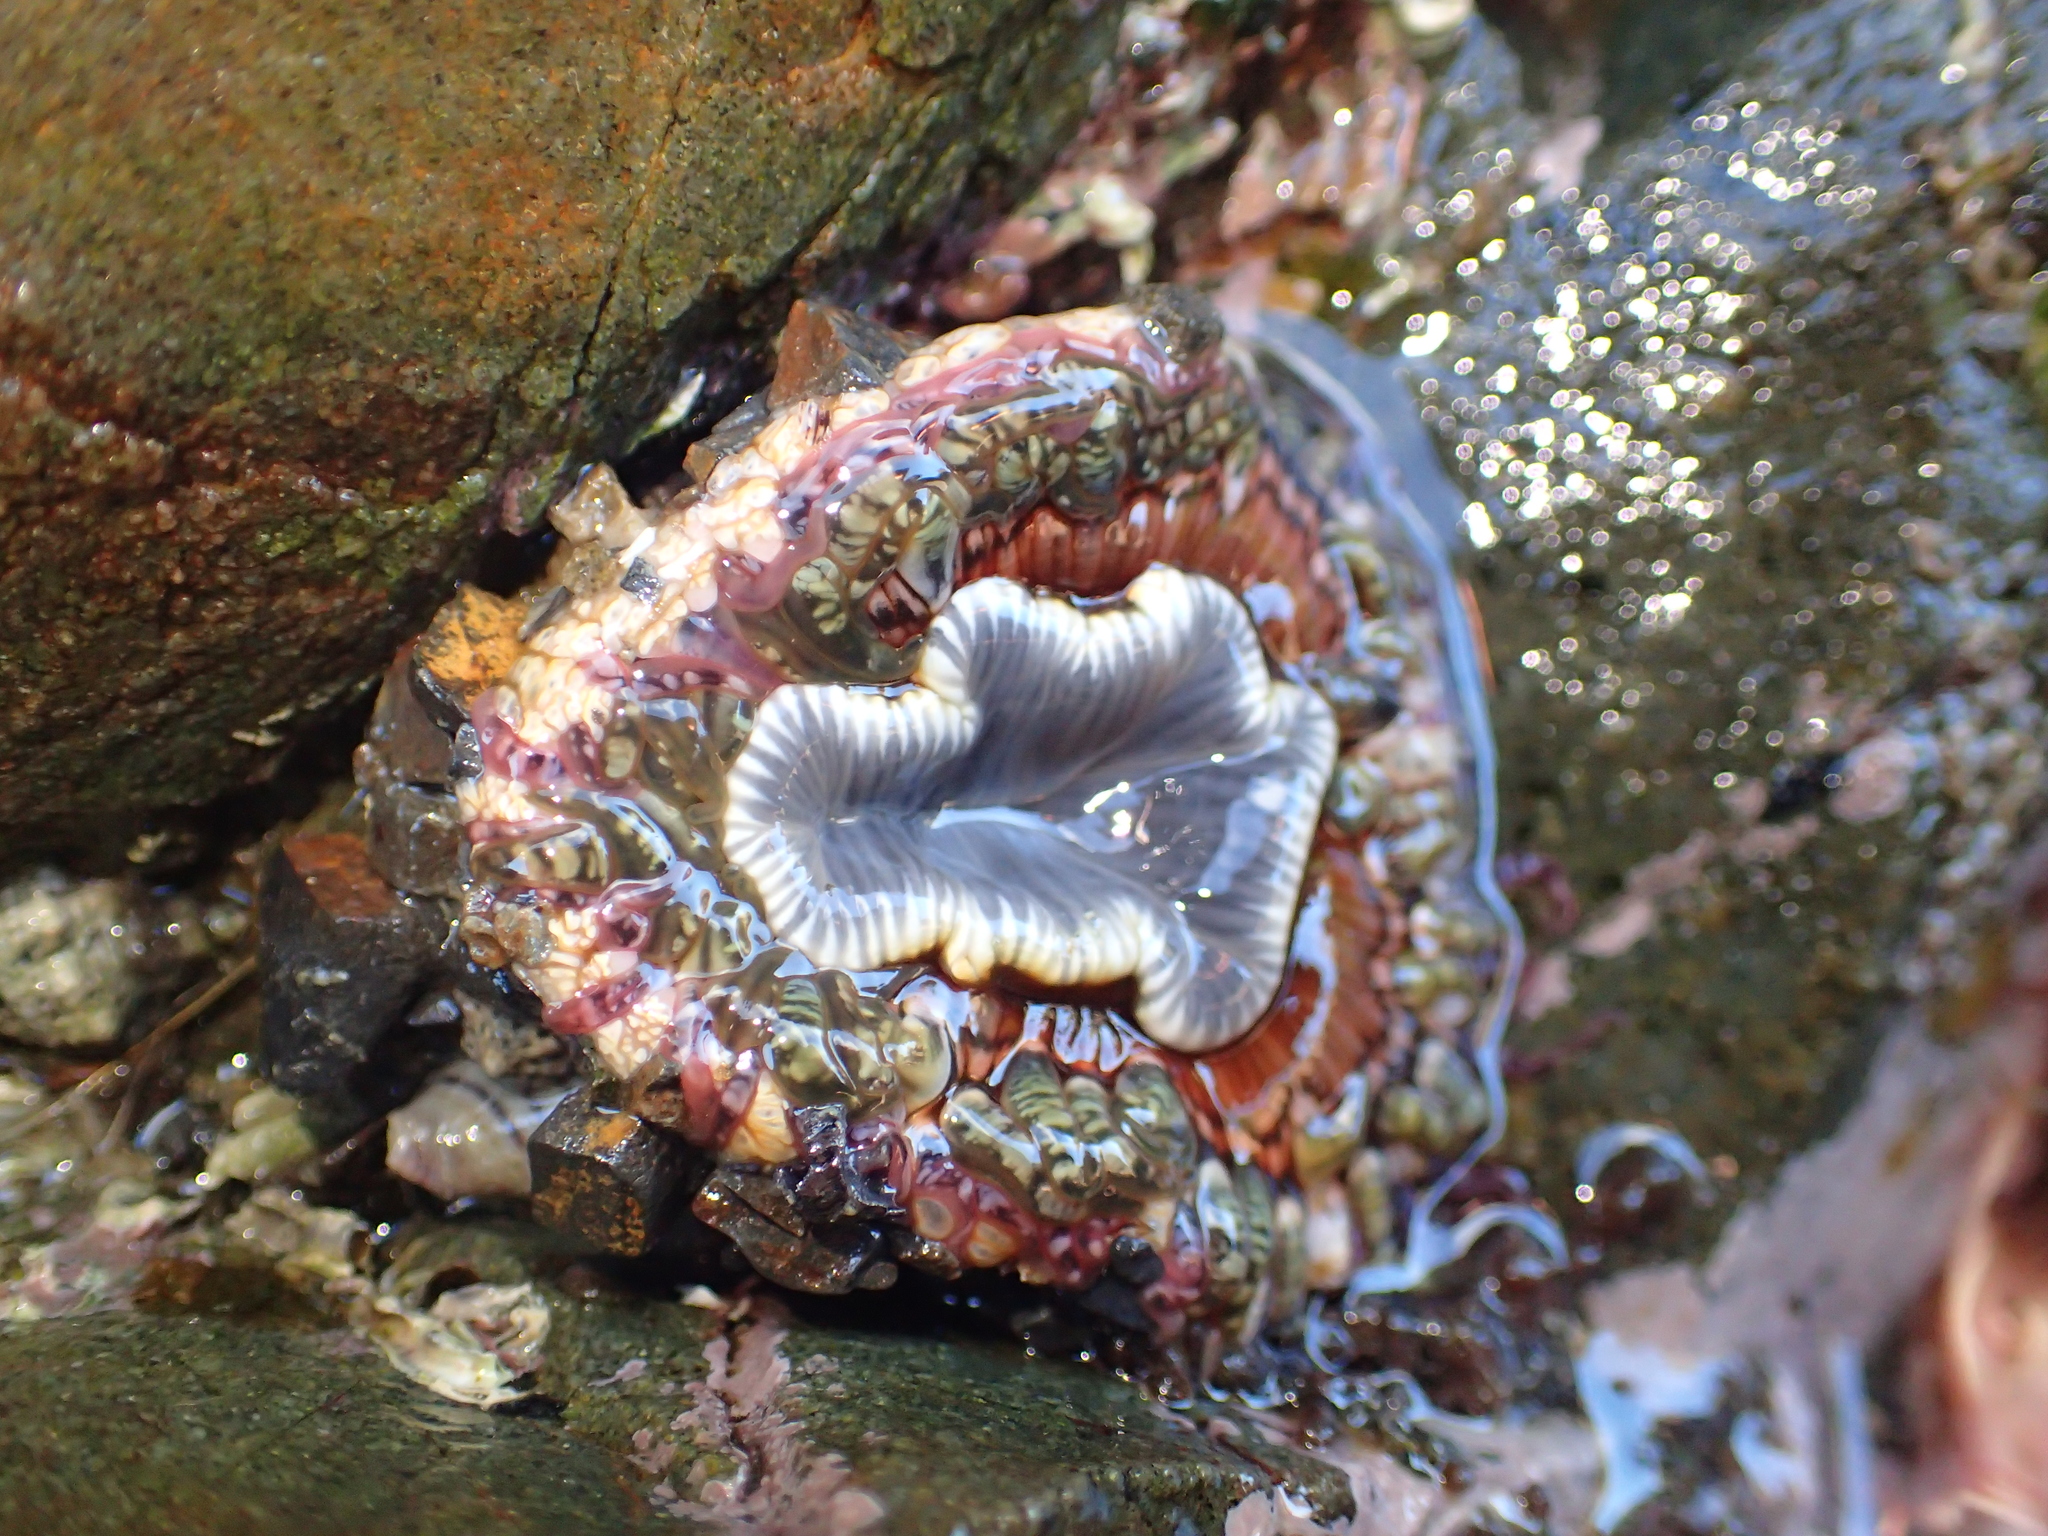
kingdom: Animalia
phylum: Cnidaria
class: Anthozoa
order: Actiniaria
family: Actiniidae
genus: Oulactis
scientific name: Oulactis muscosa
